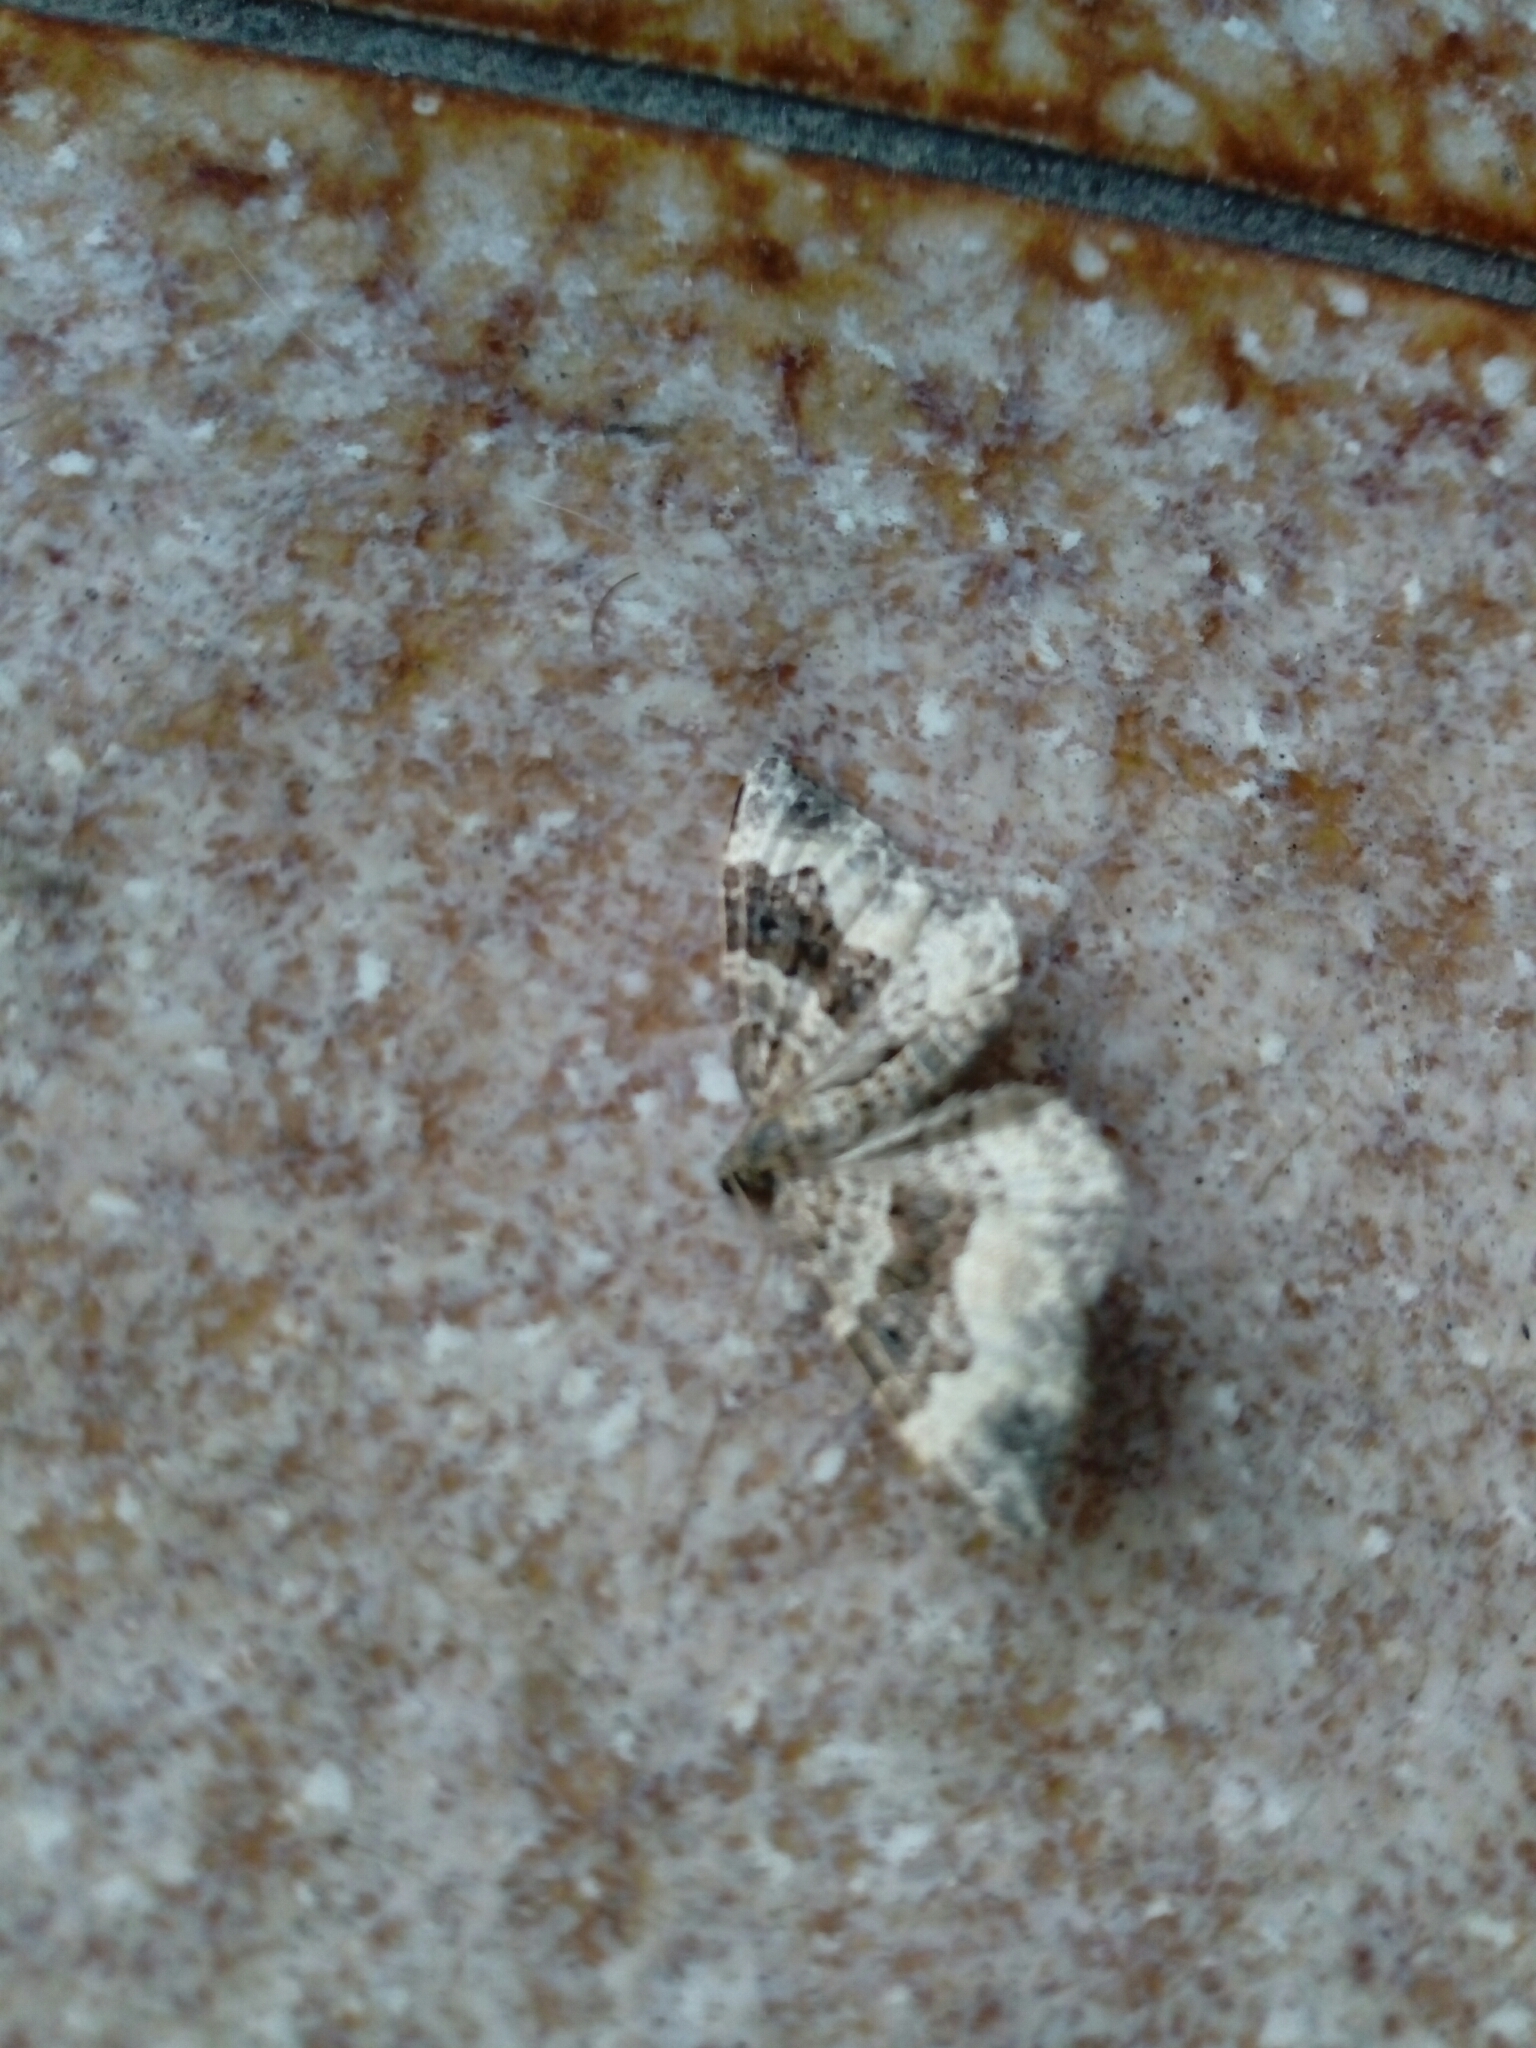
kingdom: Animalia
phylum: Arthropoda
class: Insecta
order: Lepidoptera
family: Geometridae
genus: Epirrhoe
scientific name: Epirrhoe alternata
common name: Common carpet
